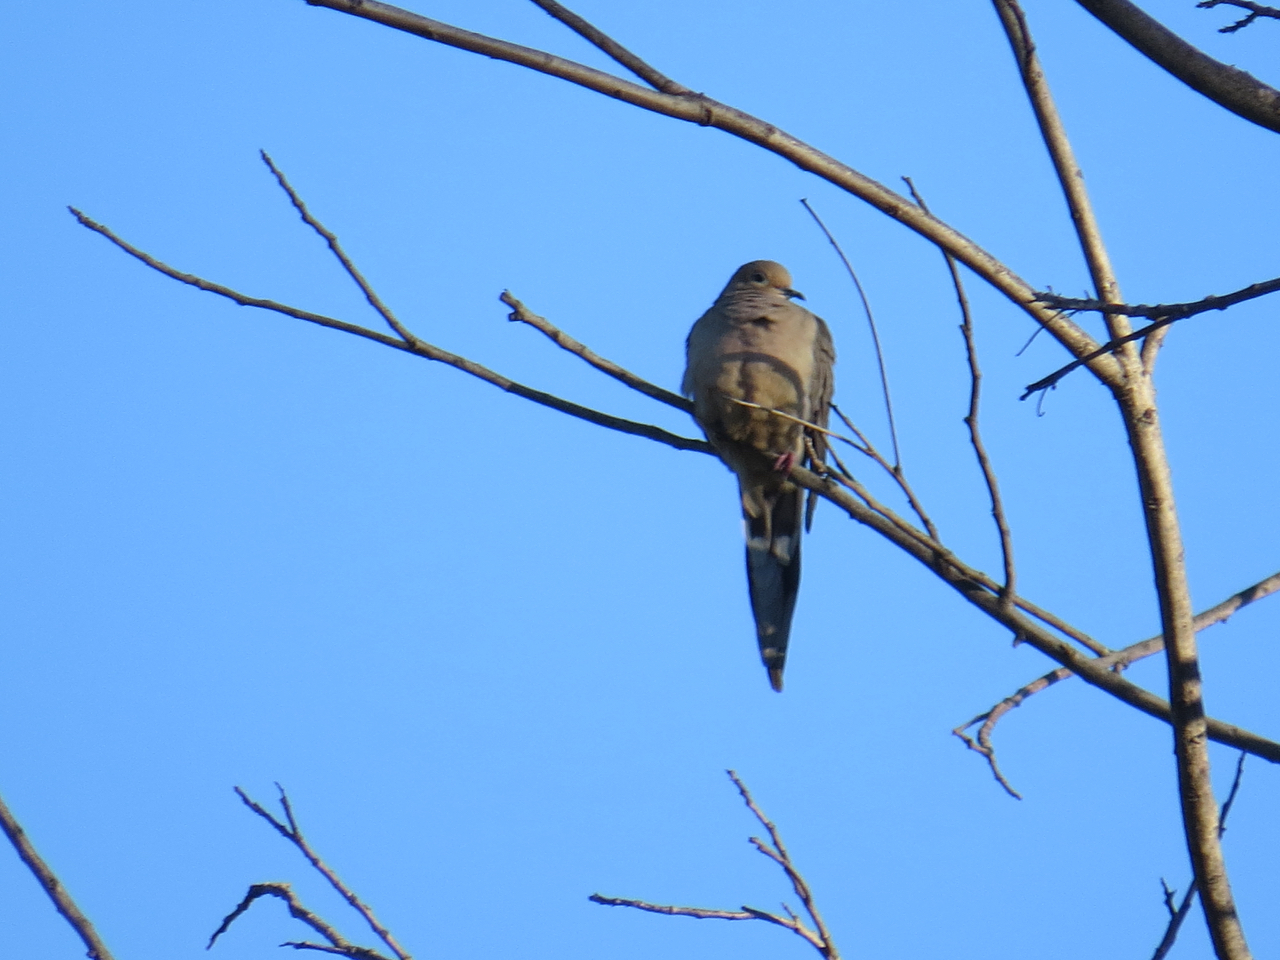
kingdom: Animalia
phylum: Chordata
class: Aves
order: Columbiformes
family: Columbidae
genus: Zenaida
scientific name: Zenaida macroura
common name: Mourning dove
